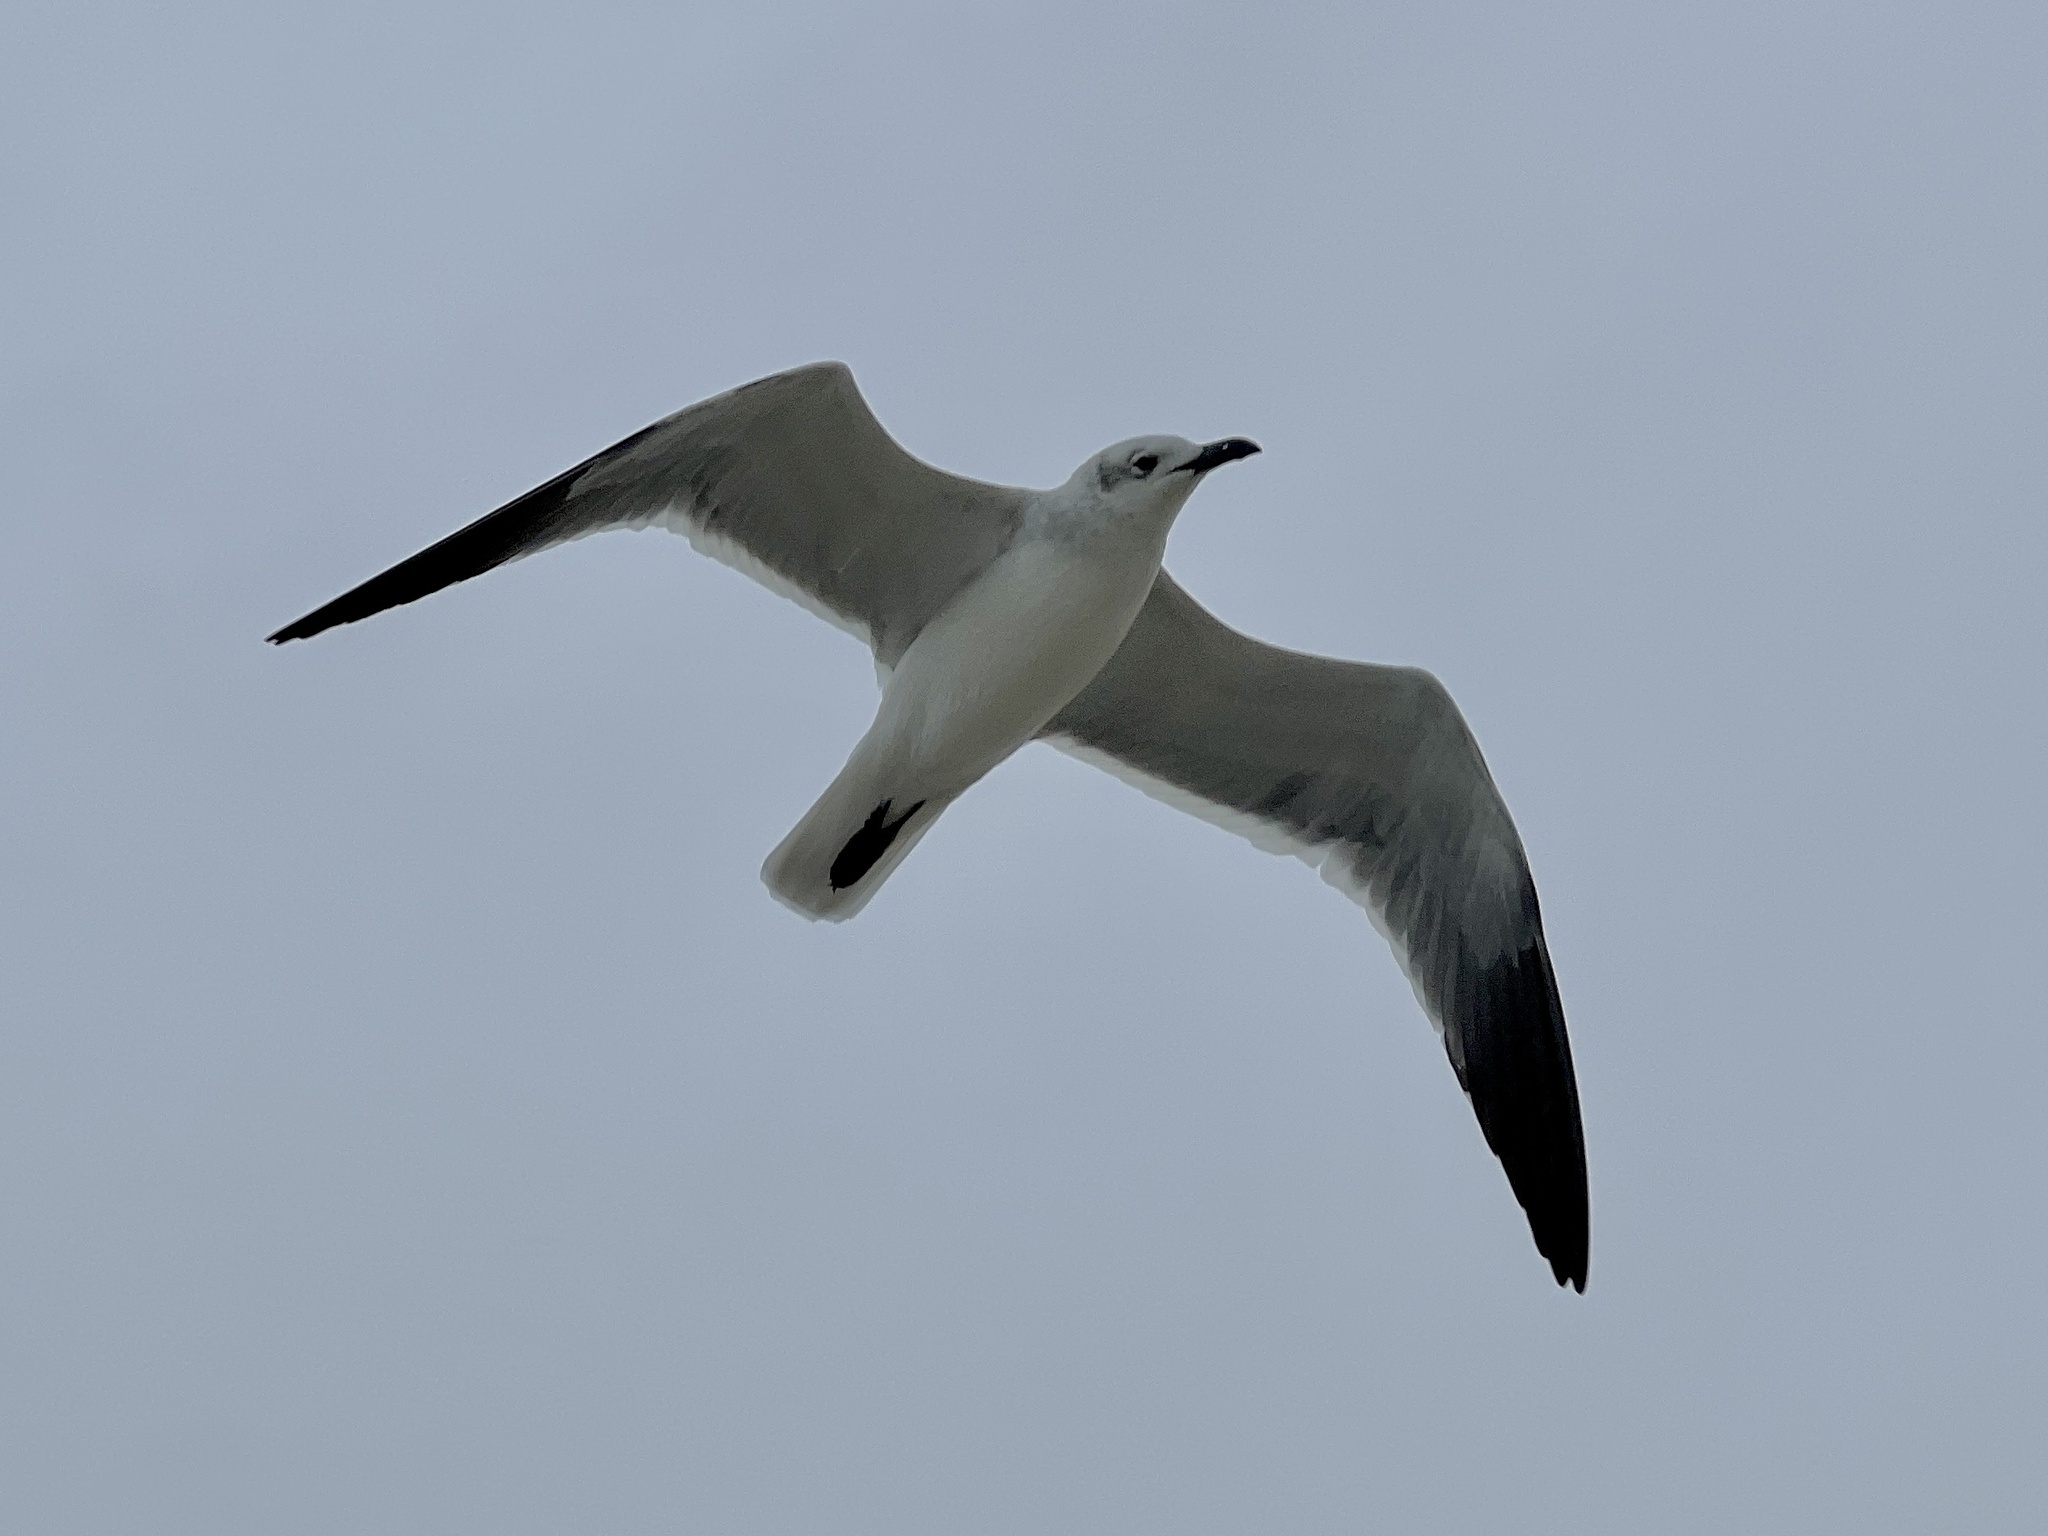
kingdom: Animalia
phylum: Chordata
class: Aves
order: Charadriiformes
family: Laridae
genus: Leucophaeus
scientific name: Leucophaeus atricilla
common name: Laughing gull
